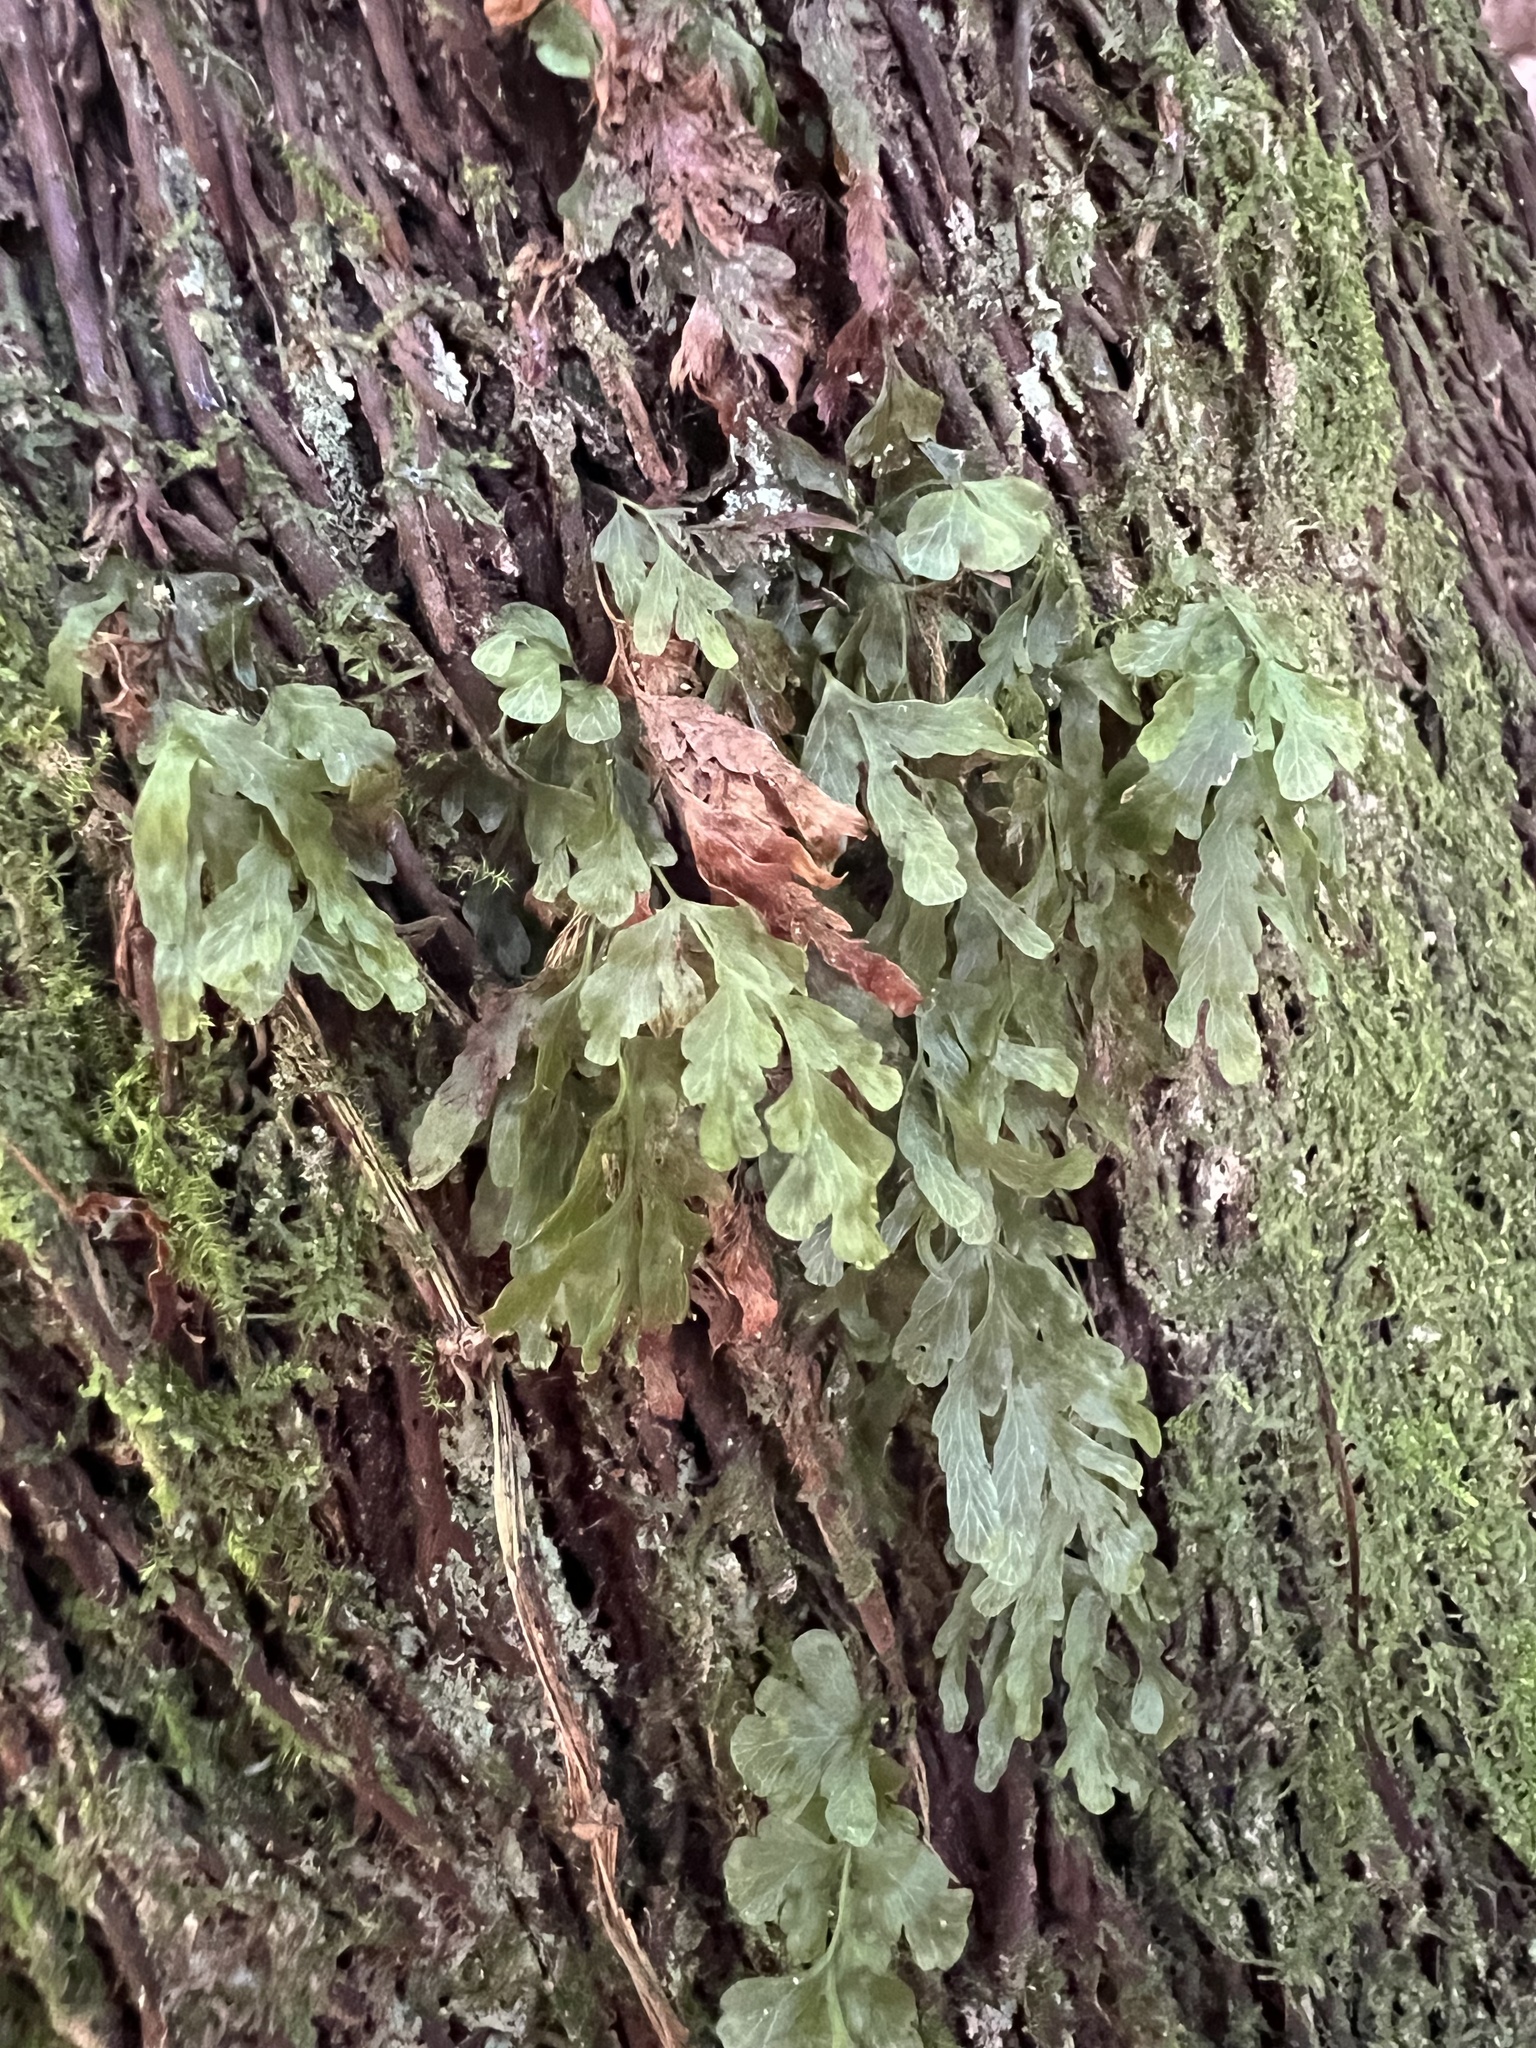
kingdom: Plantae
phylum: Tracheophyta
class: Polypodiopsida
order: Hymenophyllales
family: Hymenophyllaceae
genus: Polyphlebium
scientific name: Polyphlebium venosum
